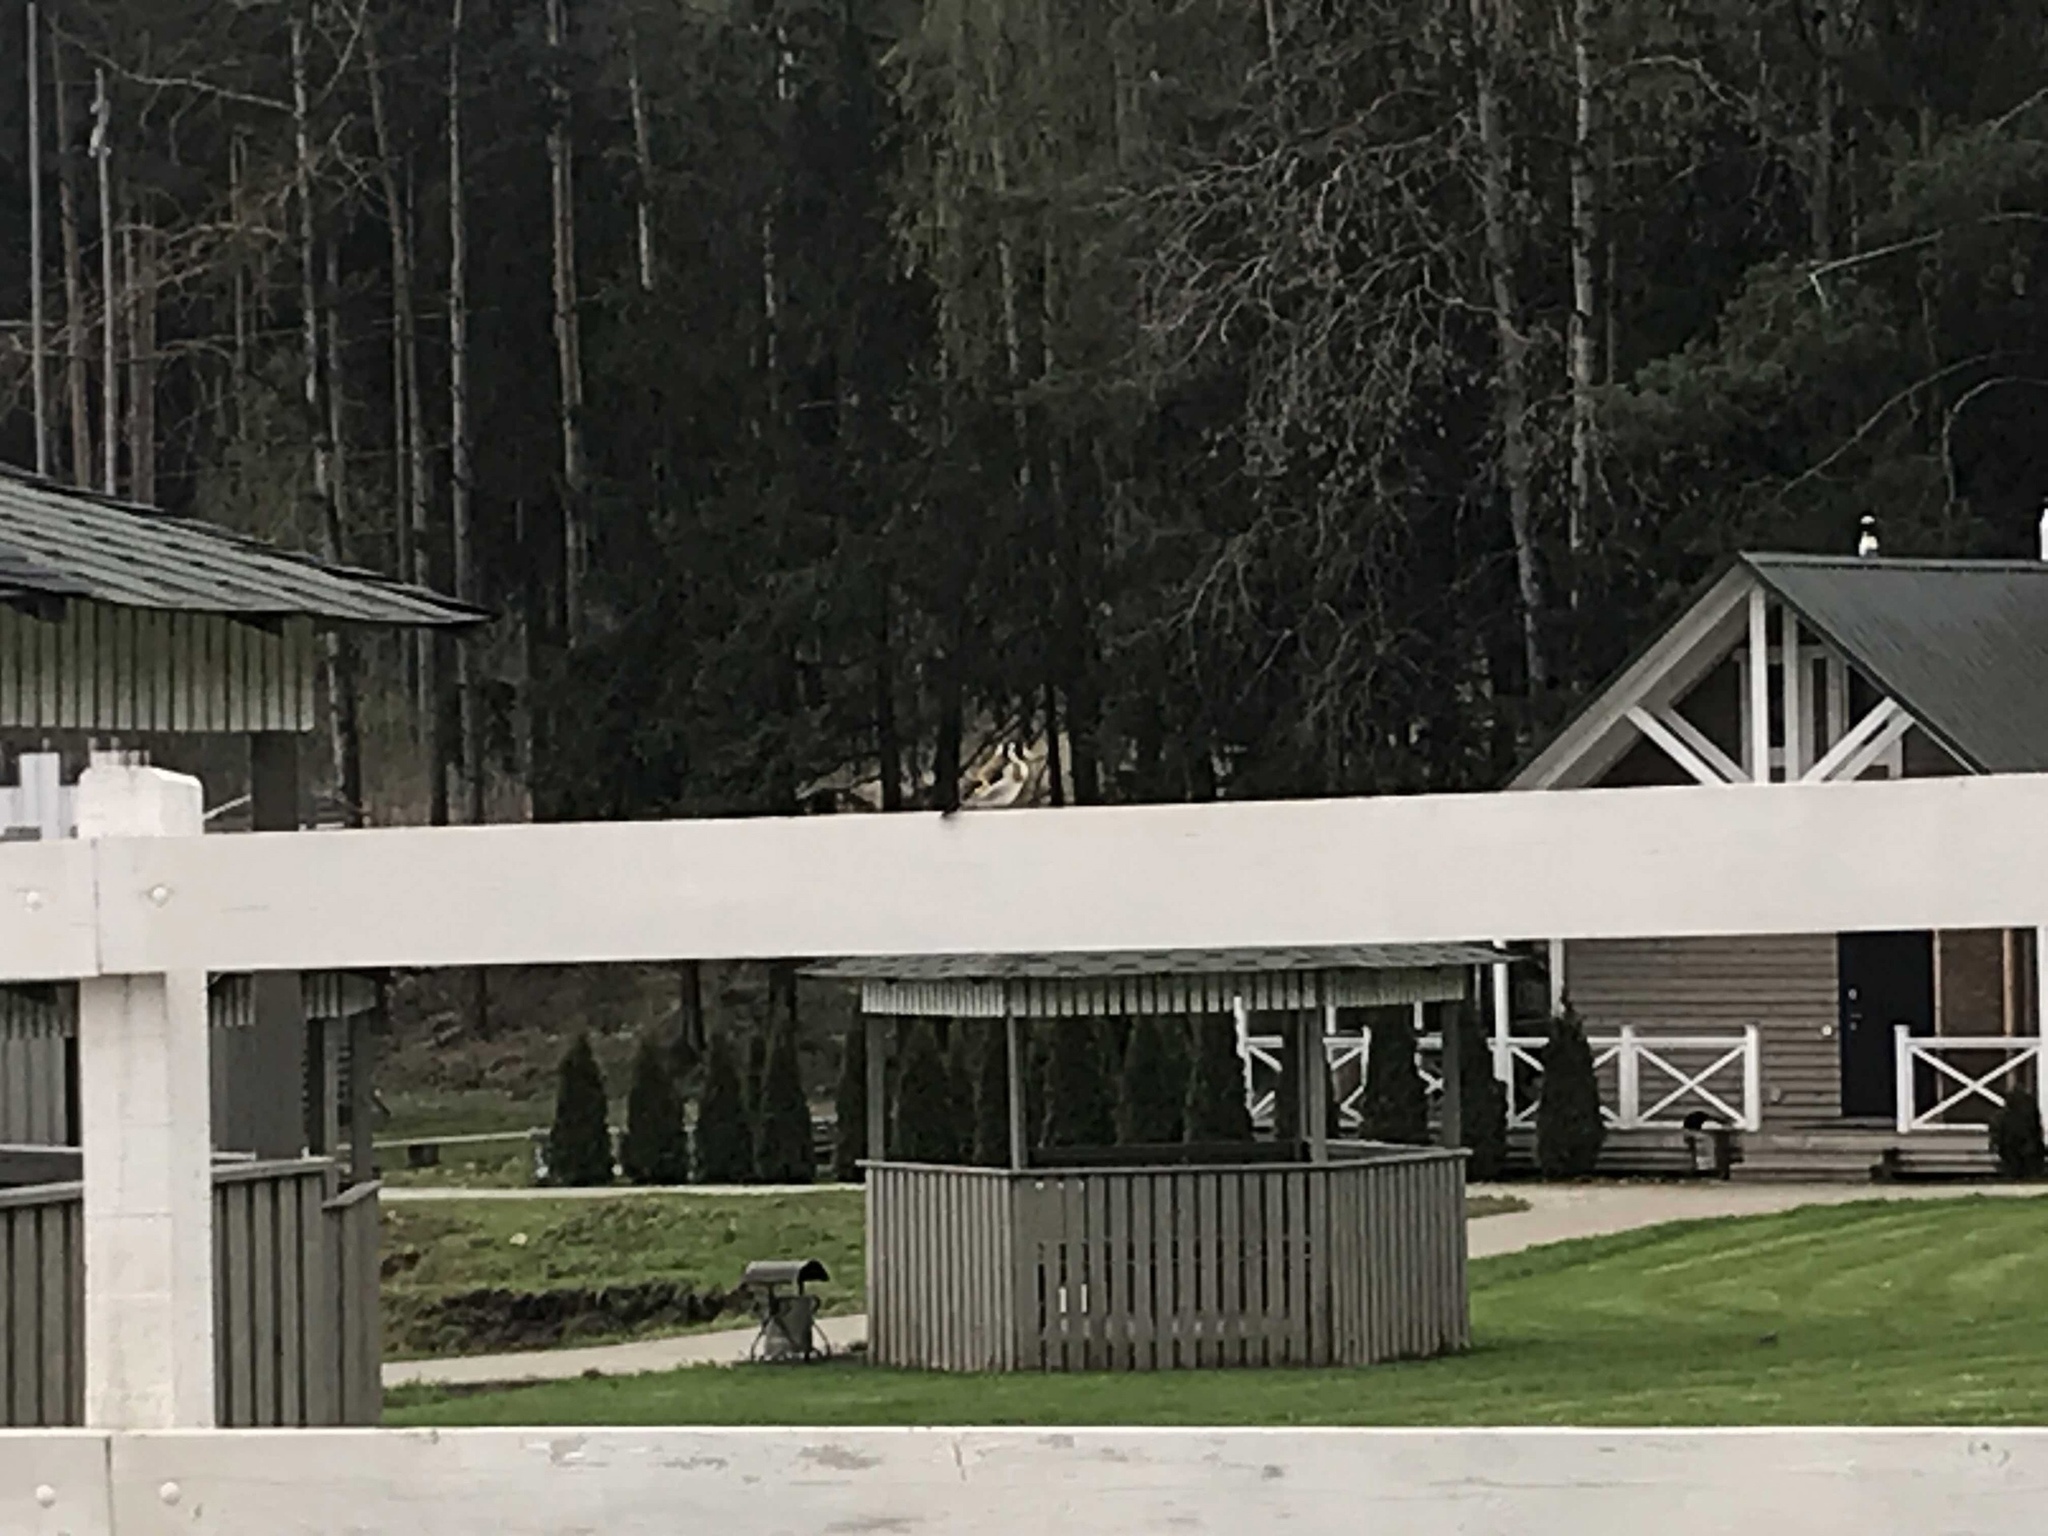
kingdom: Animalia
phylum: Chordata
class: Aves
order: Passeriformes
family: Fringillidae
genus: Carduelis
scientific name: Carduelis carduelis
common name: European goldfinch
